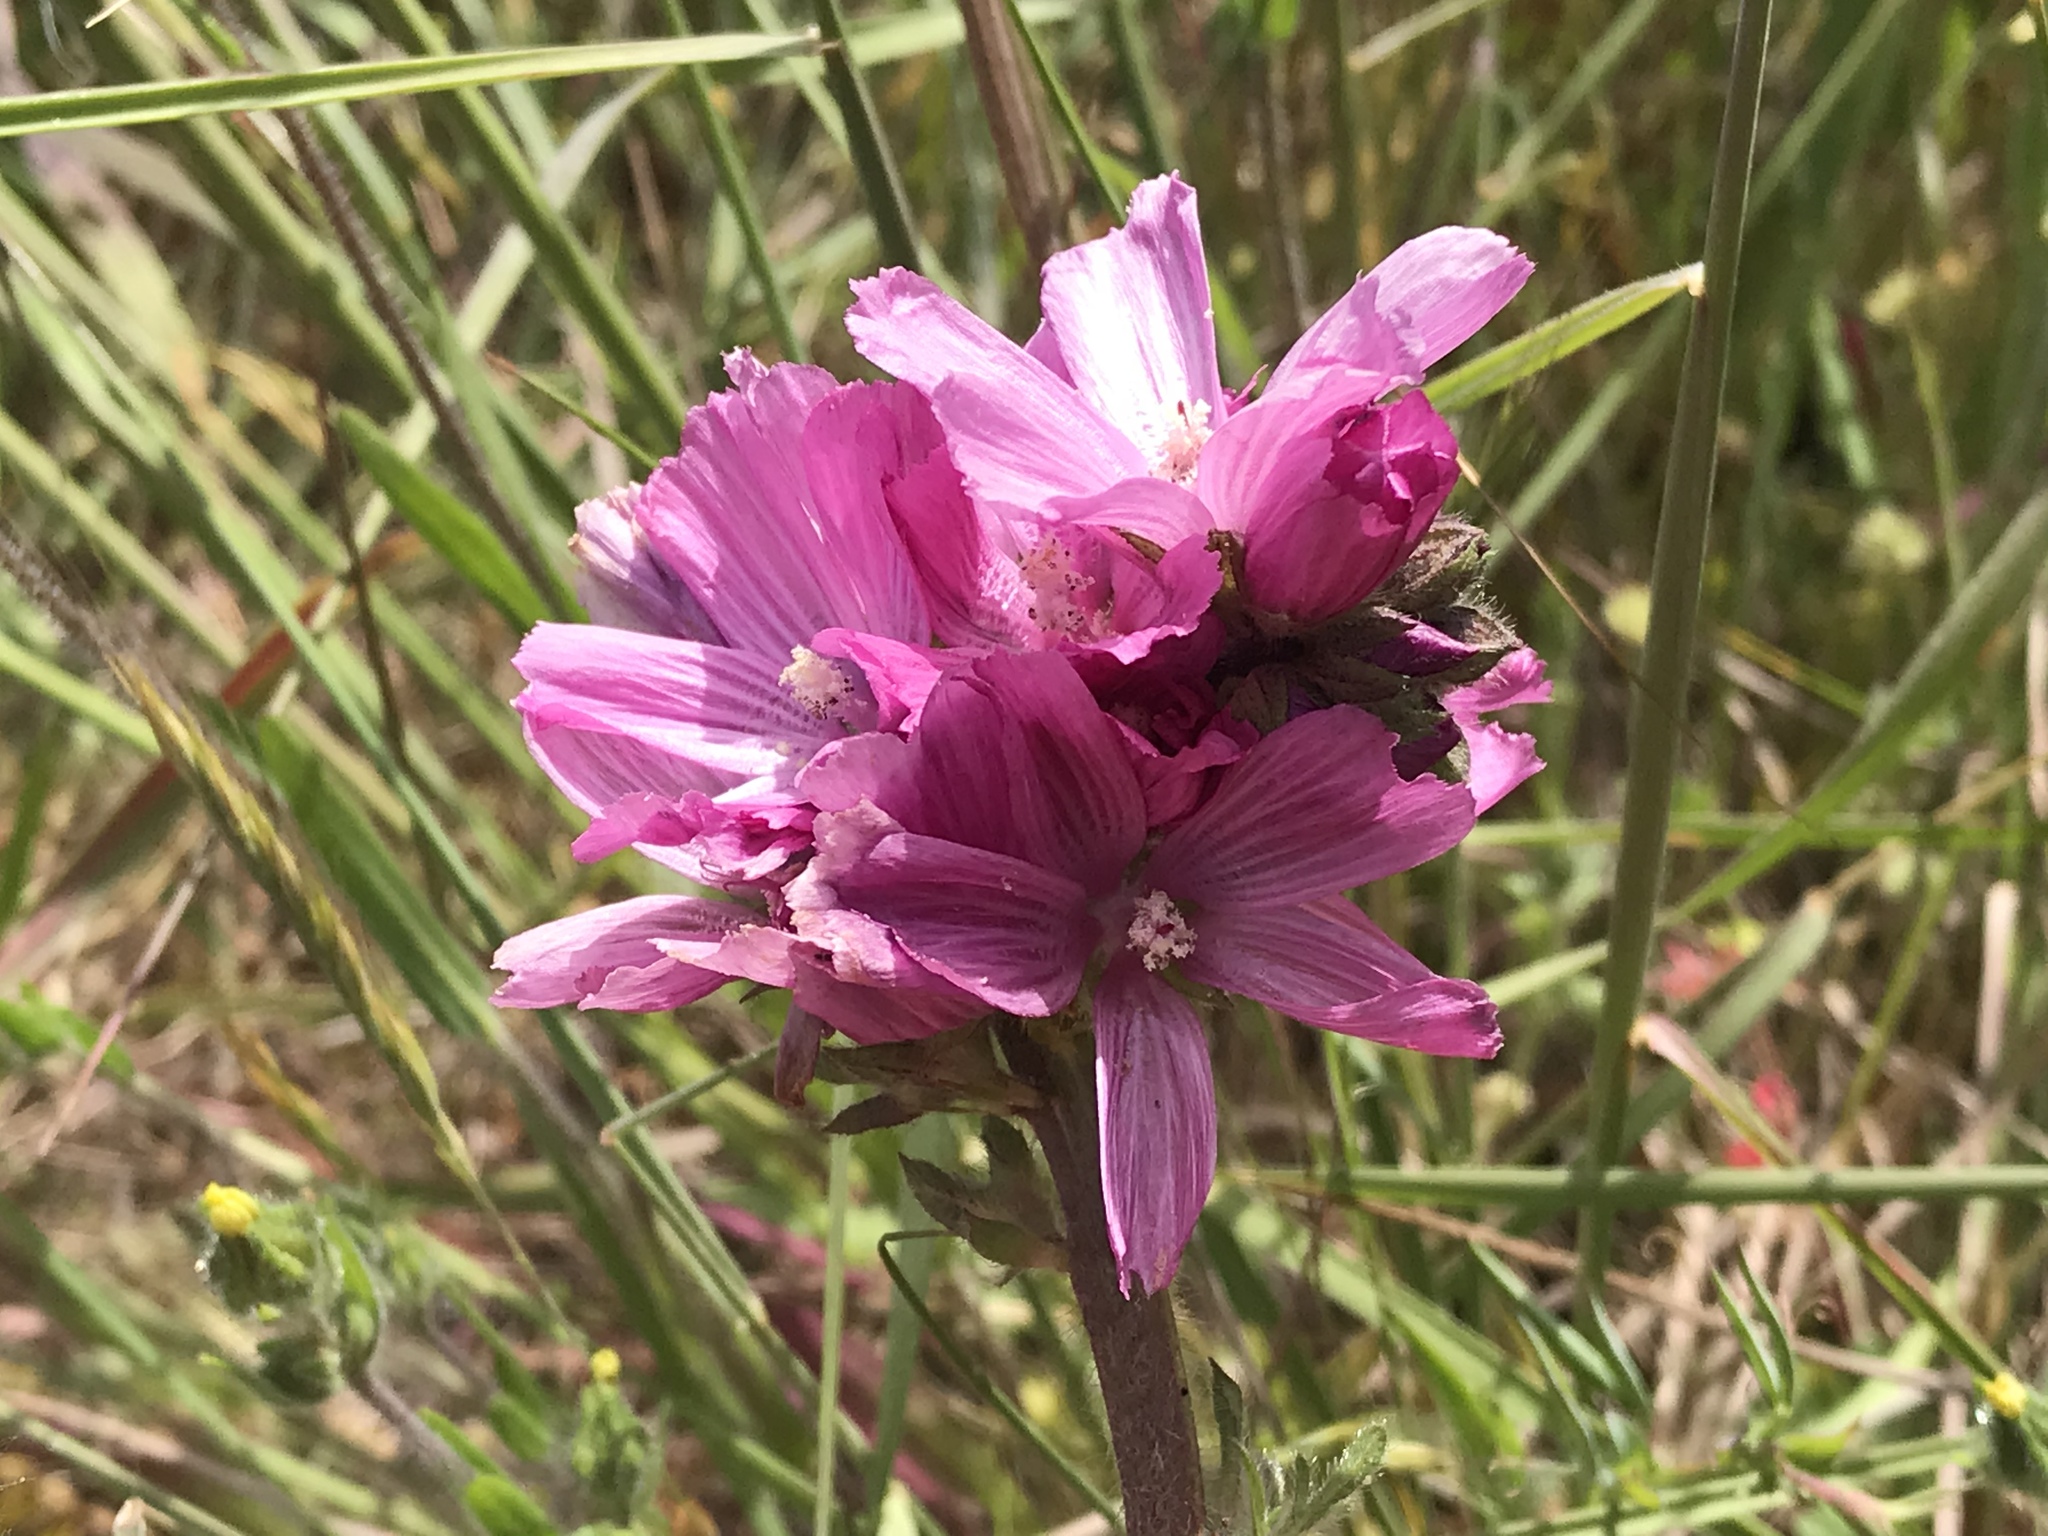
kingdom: Plantae
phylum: Tracheophyta
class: Magnoliopsida
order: Malvales
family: Malvaceae
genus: Sidalcea
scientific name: Sidalcea malviflora
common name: Greek mallow
